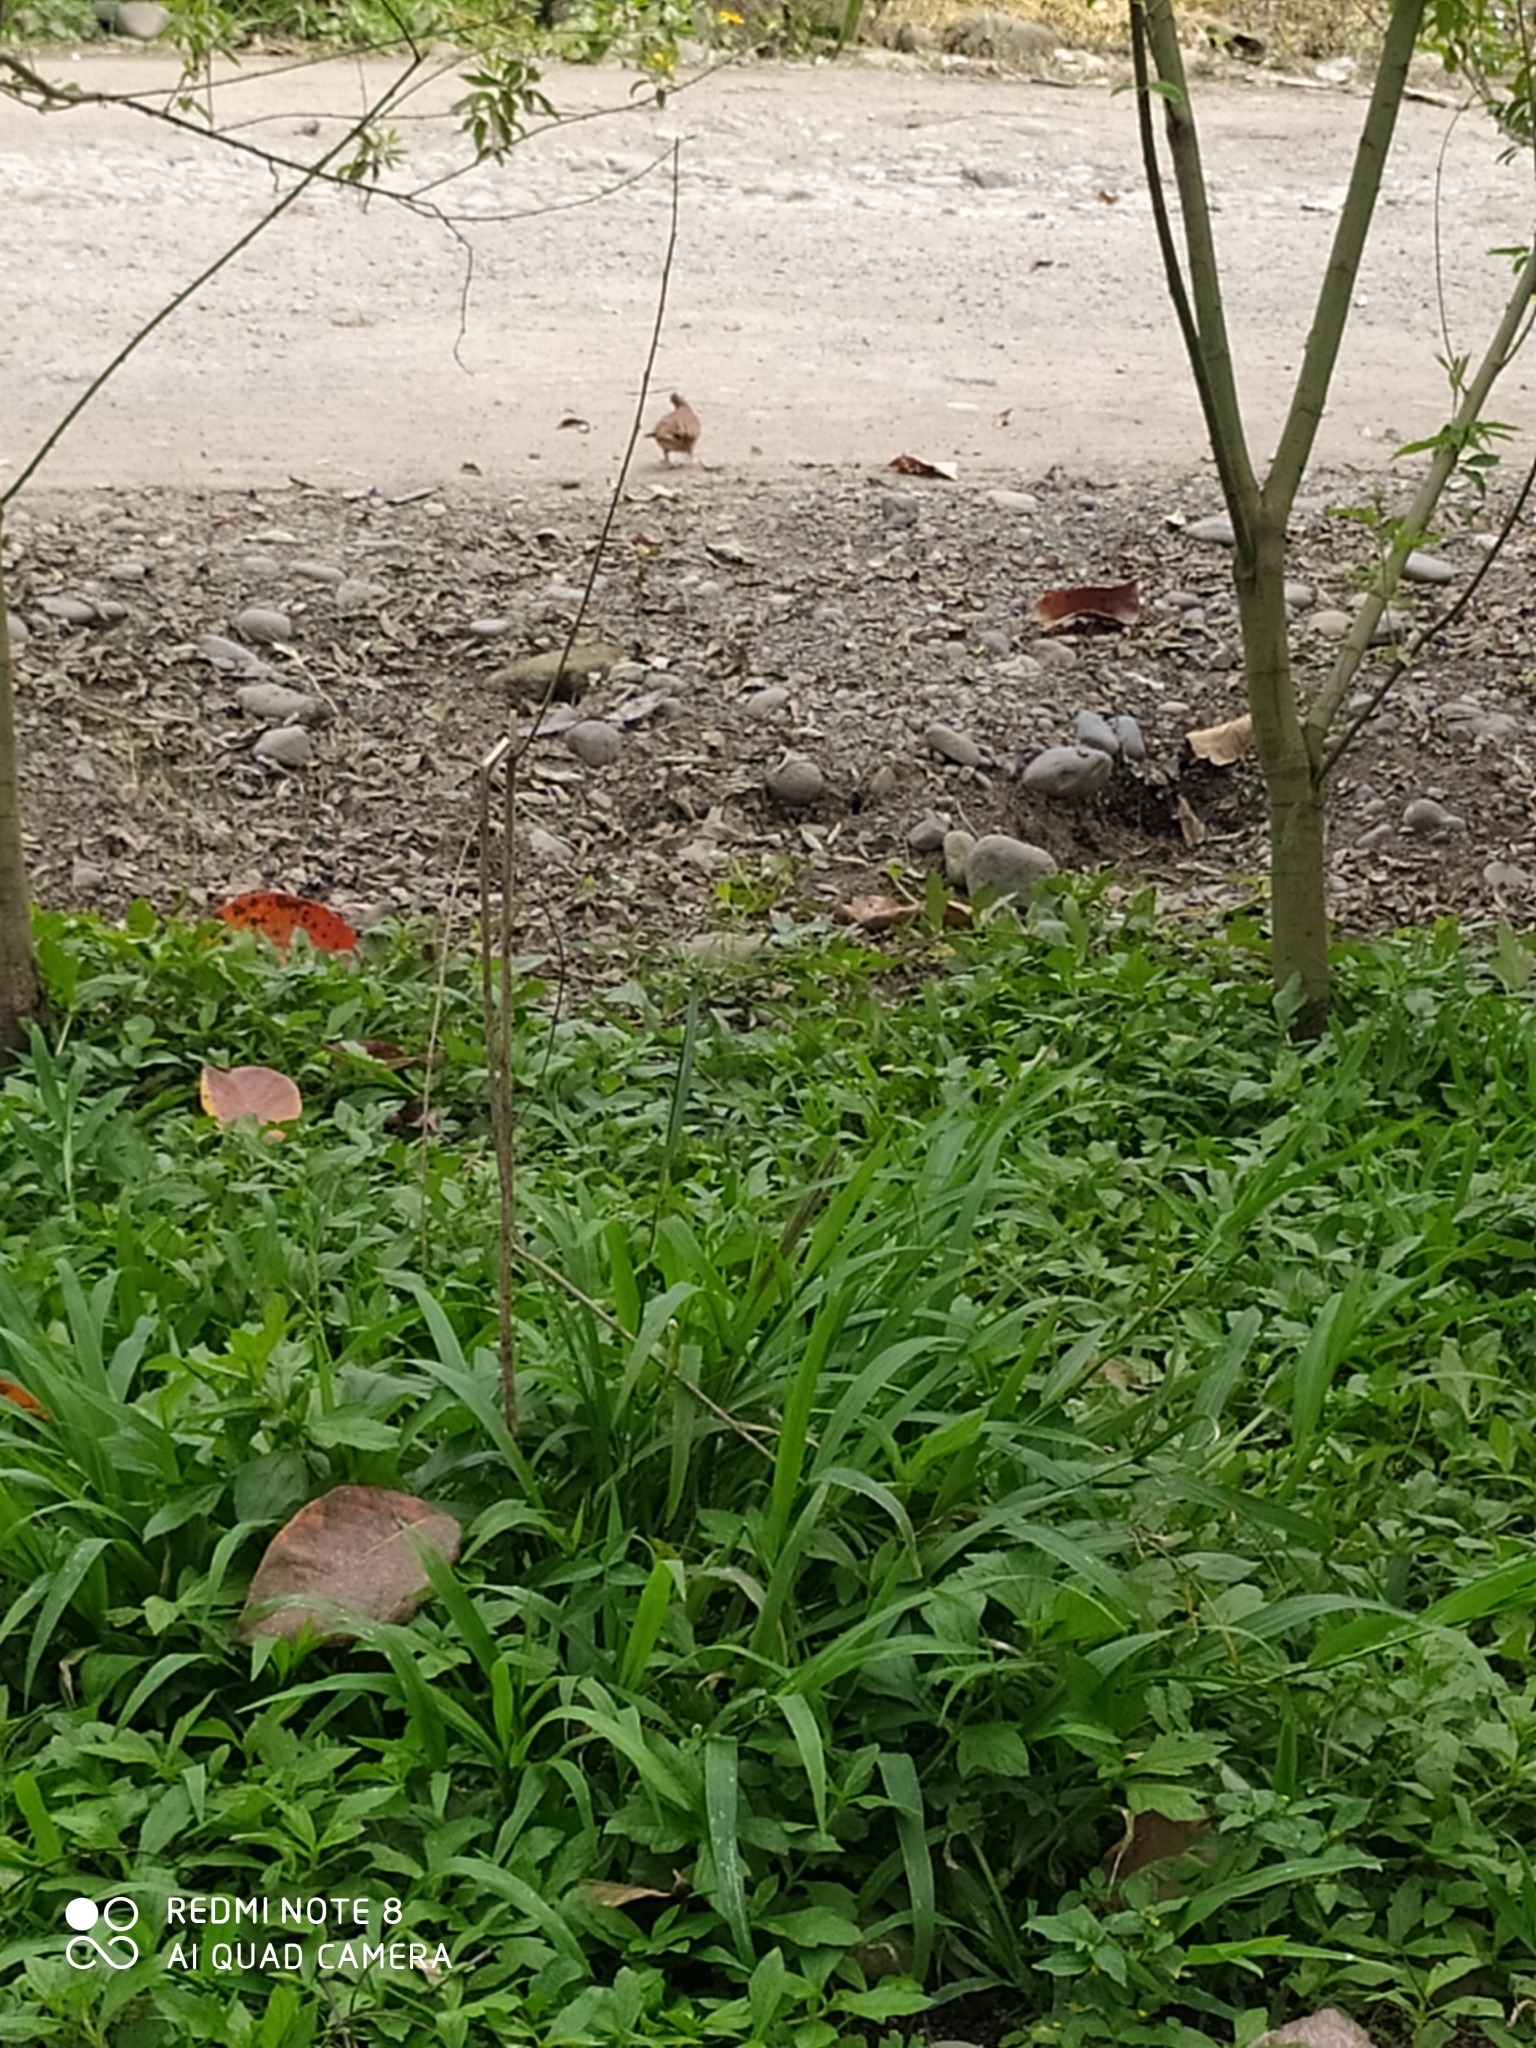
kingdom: Animalia
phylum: Chordata
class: Aves
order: Columbiformes
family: Columbidae
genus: Columbina
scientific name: Columbina talpacoti
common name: Ruddy ground dove
